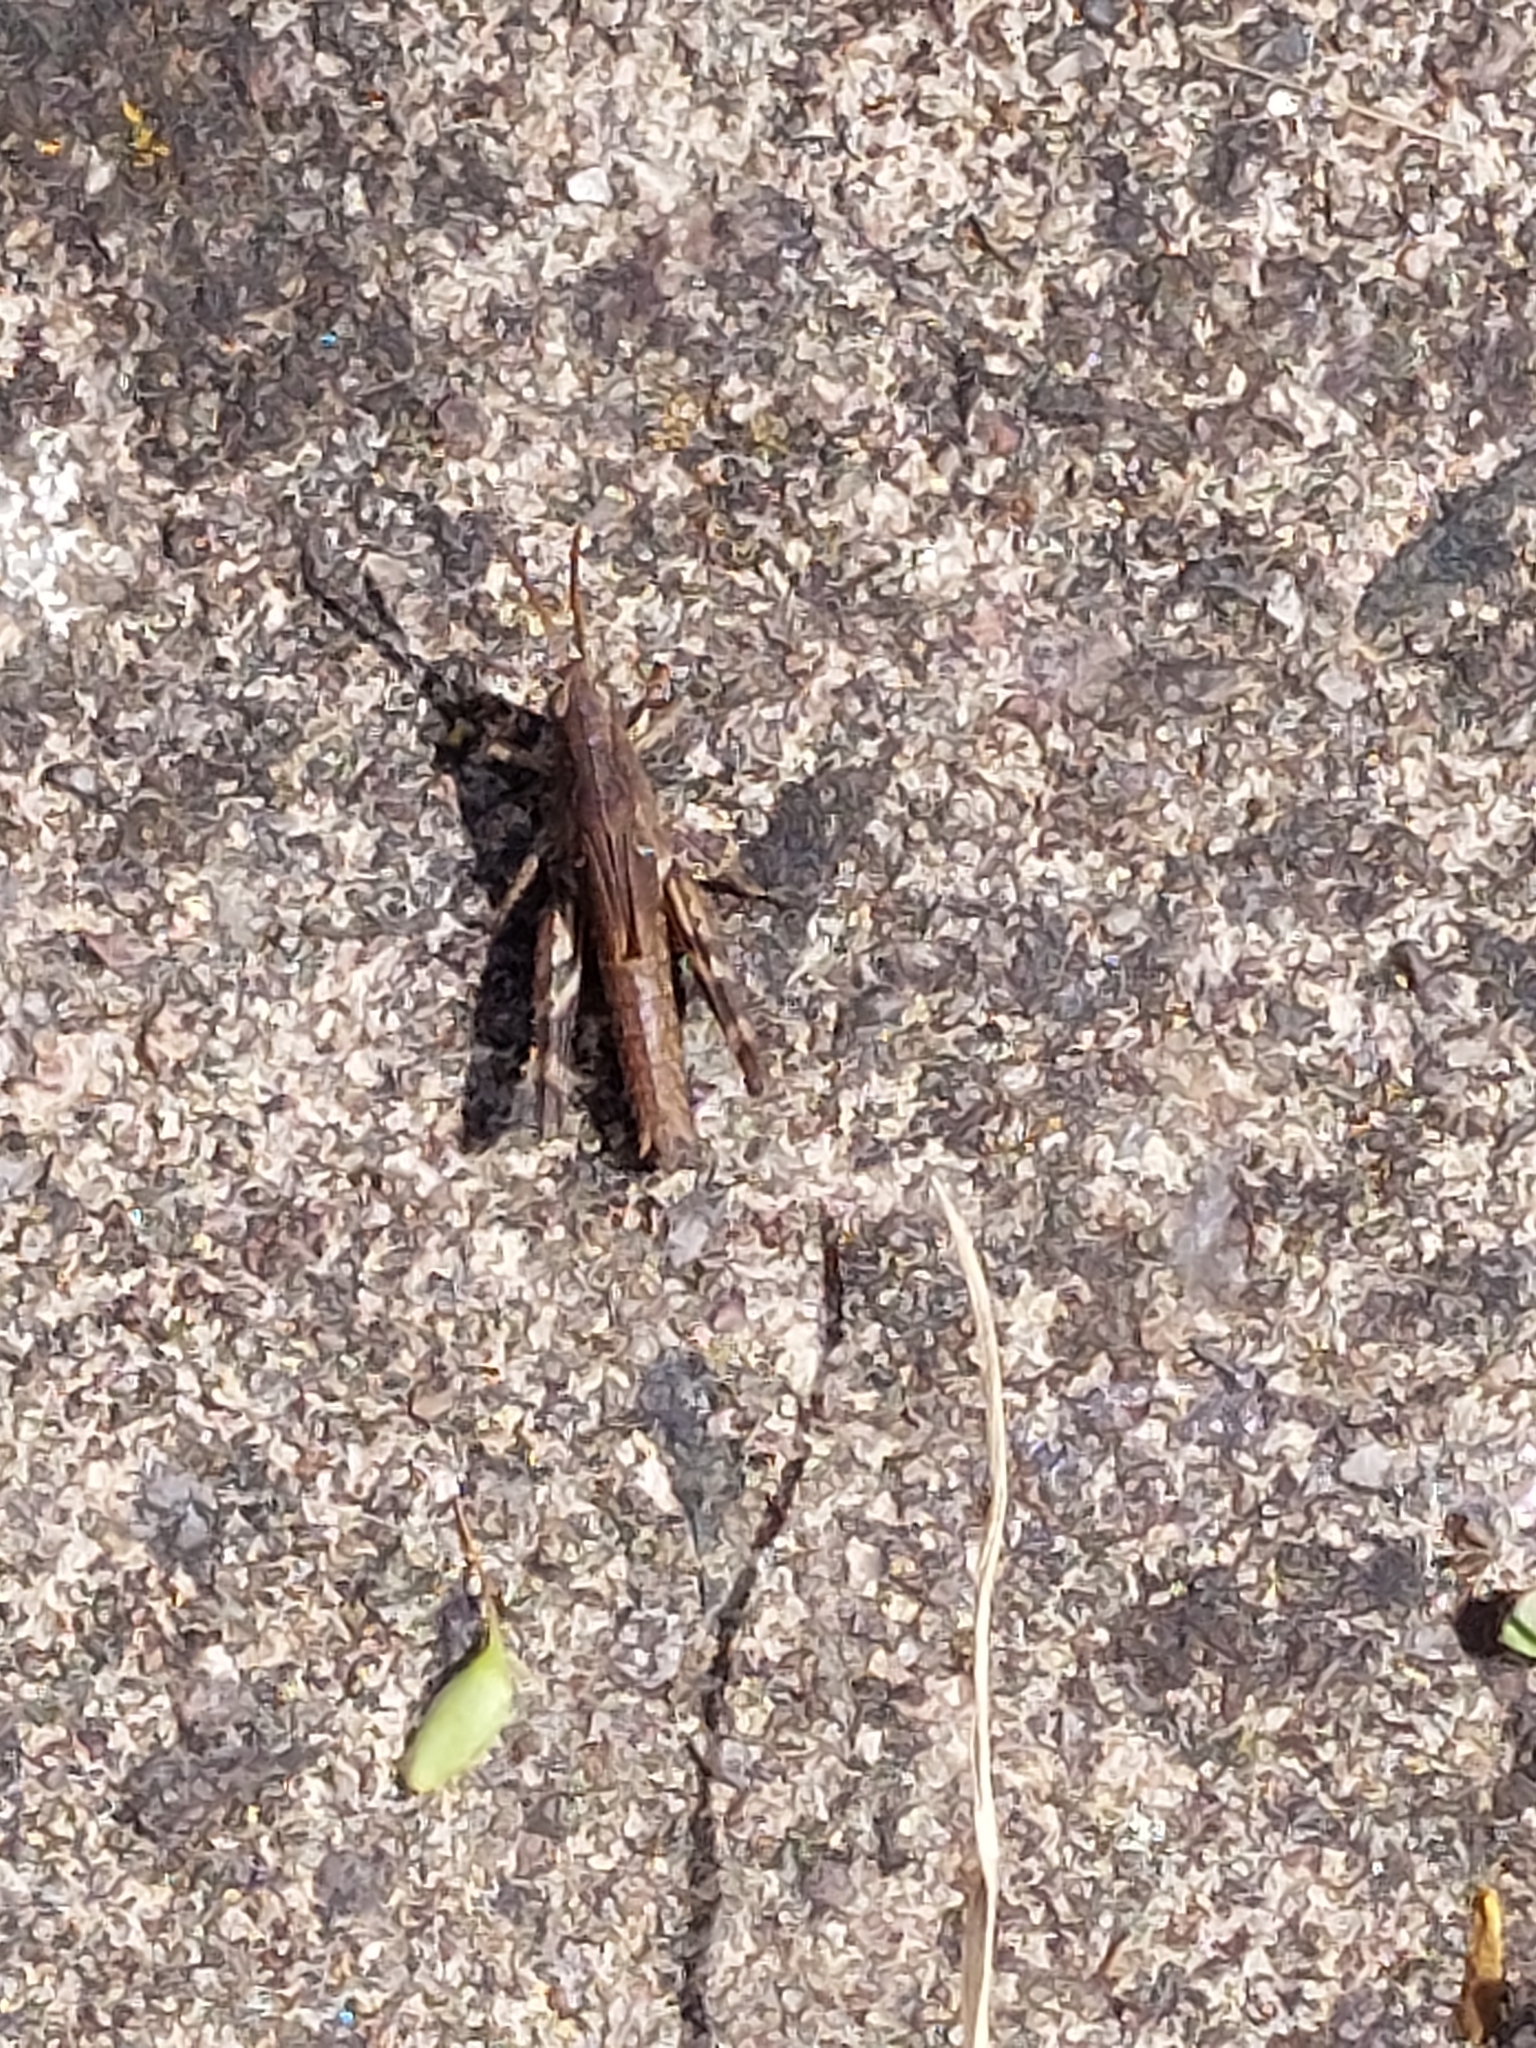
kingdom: Animalia
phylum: Arthropoda
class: Insecta
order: Orthoptera
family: Acrididae
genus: Chorthippus
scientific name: Chorthippus brunneus
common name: Field grasshopper
